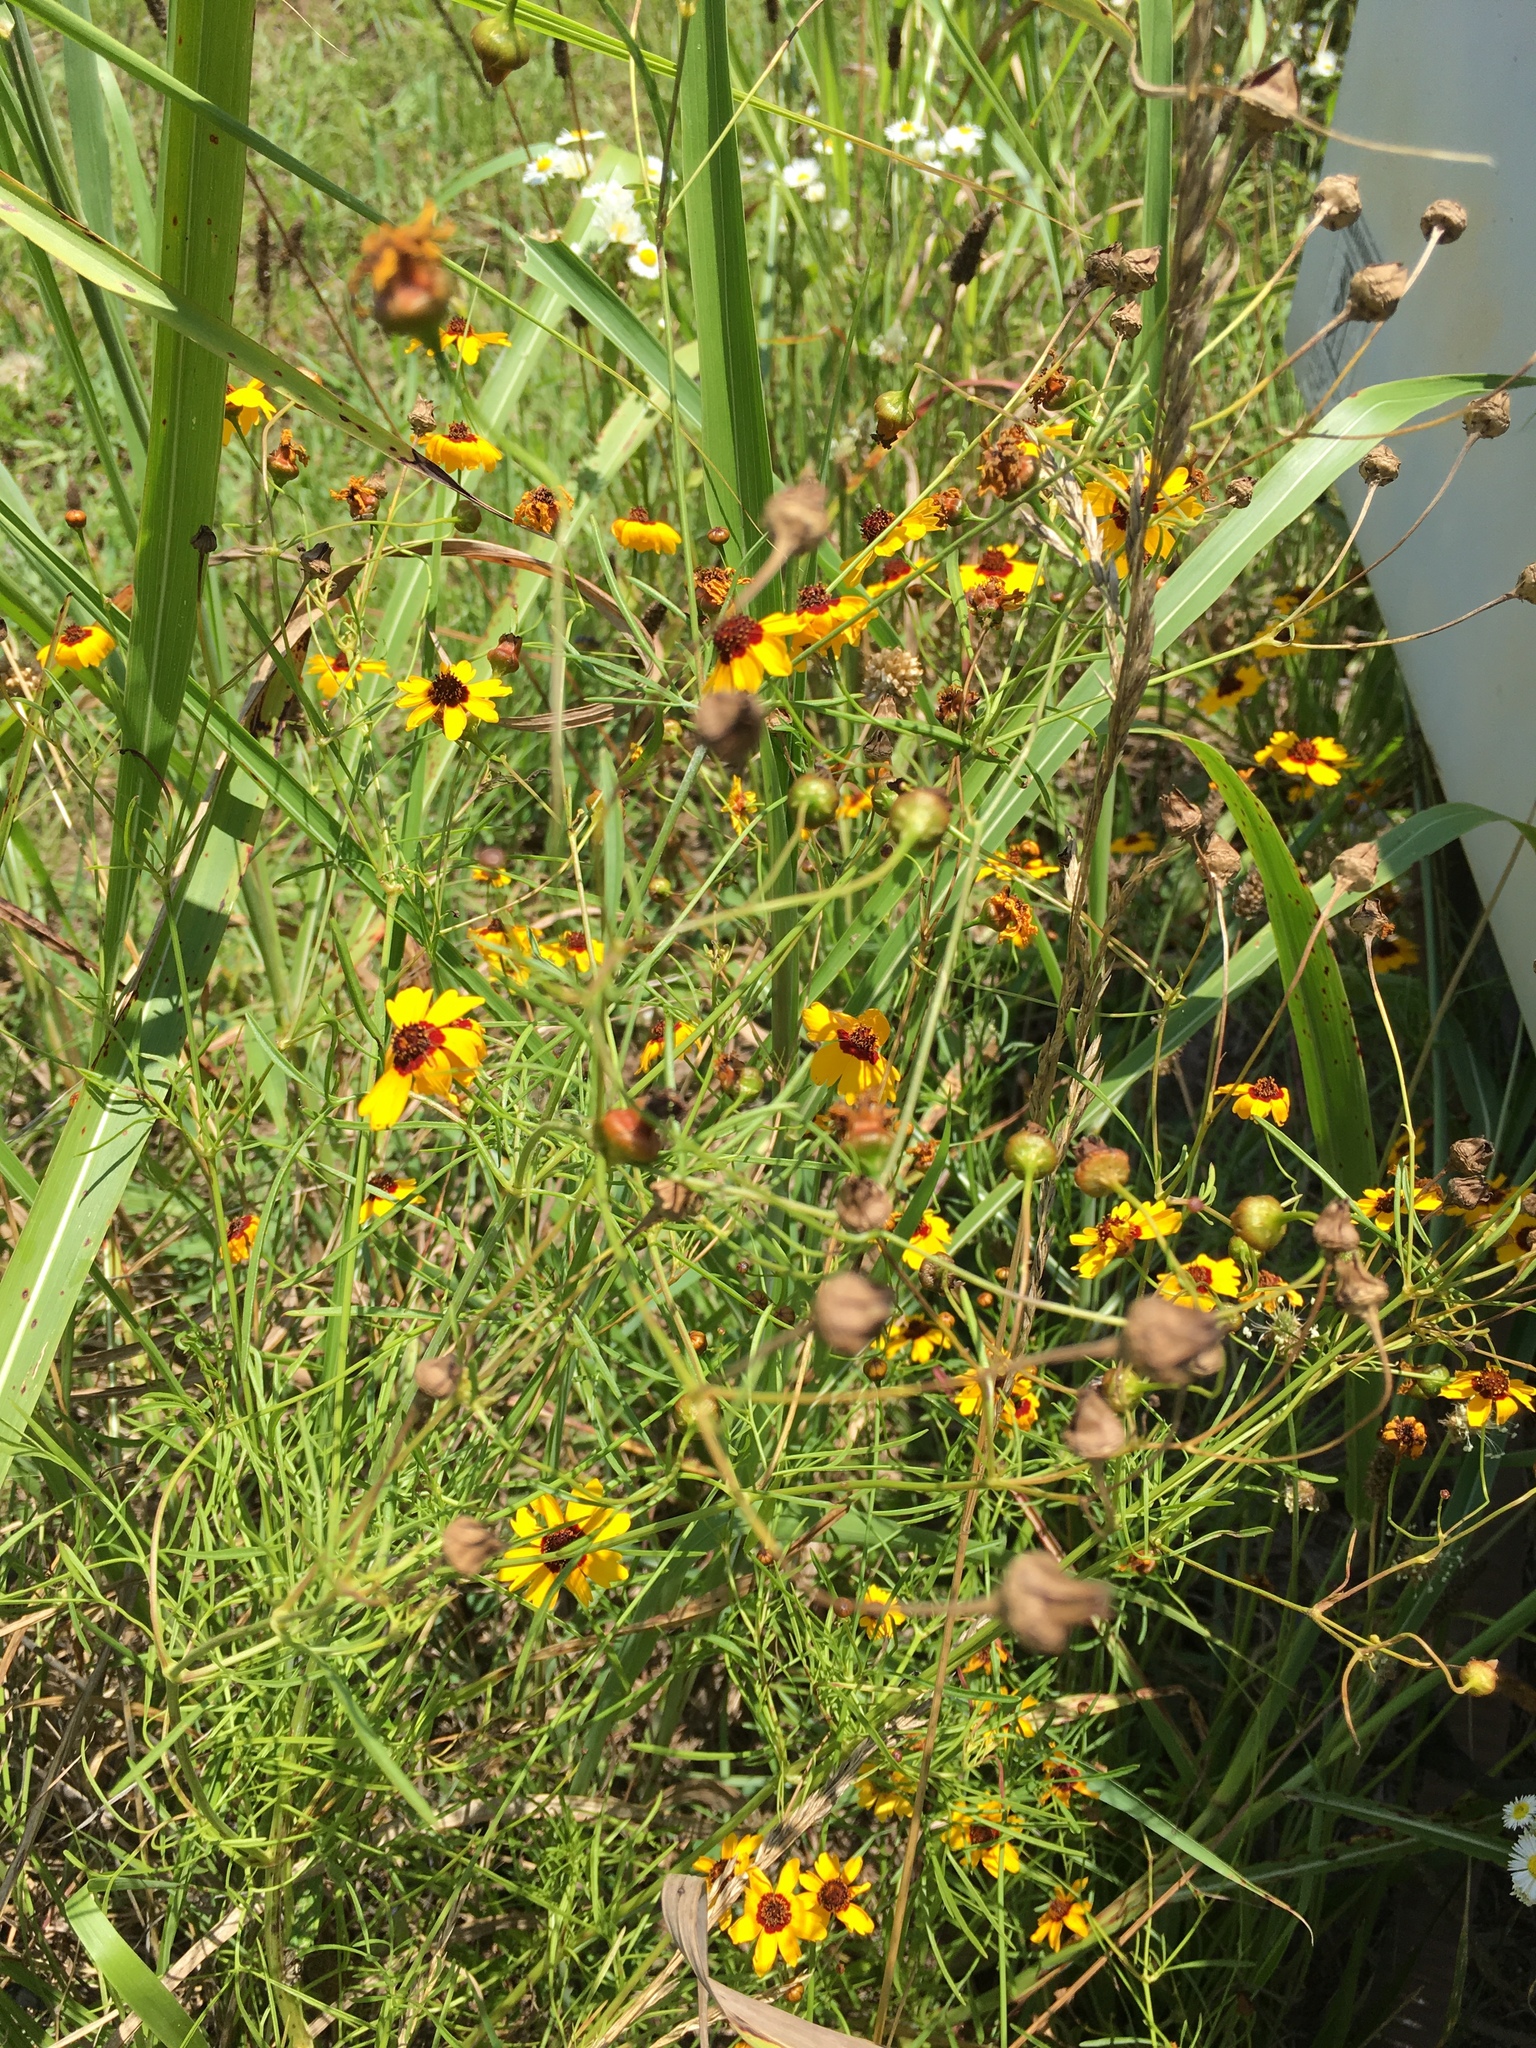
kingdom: Plantae
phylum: Tracheophyta
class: Magnoliopsida
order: Asterales
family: Asteraceae
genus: Coreopsis
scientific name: Coreopsis tinctoria
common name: Garden tickseed
